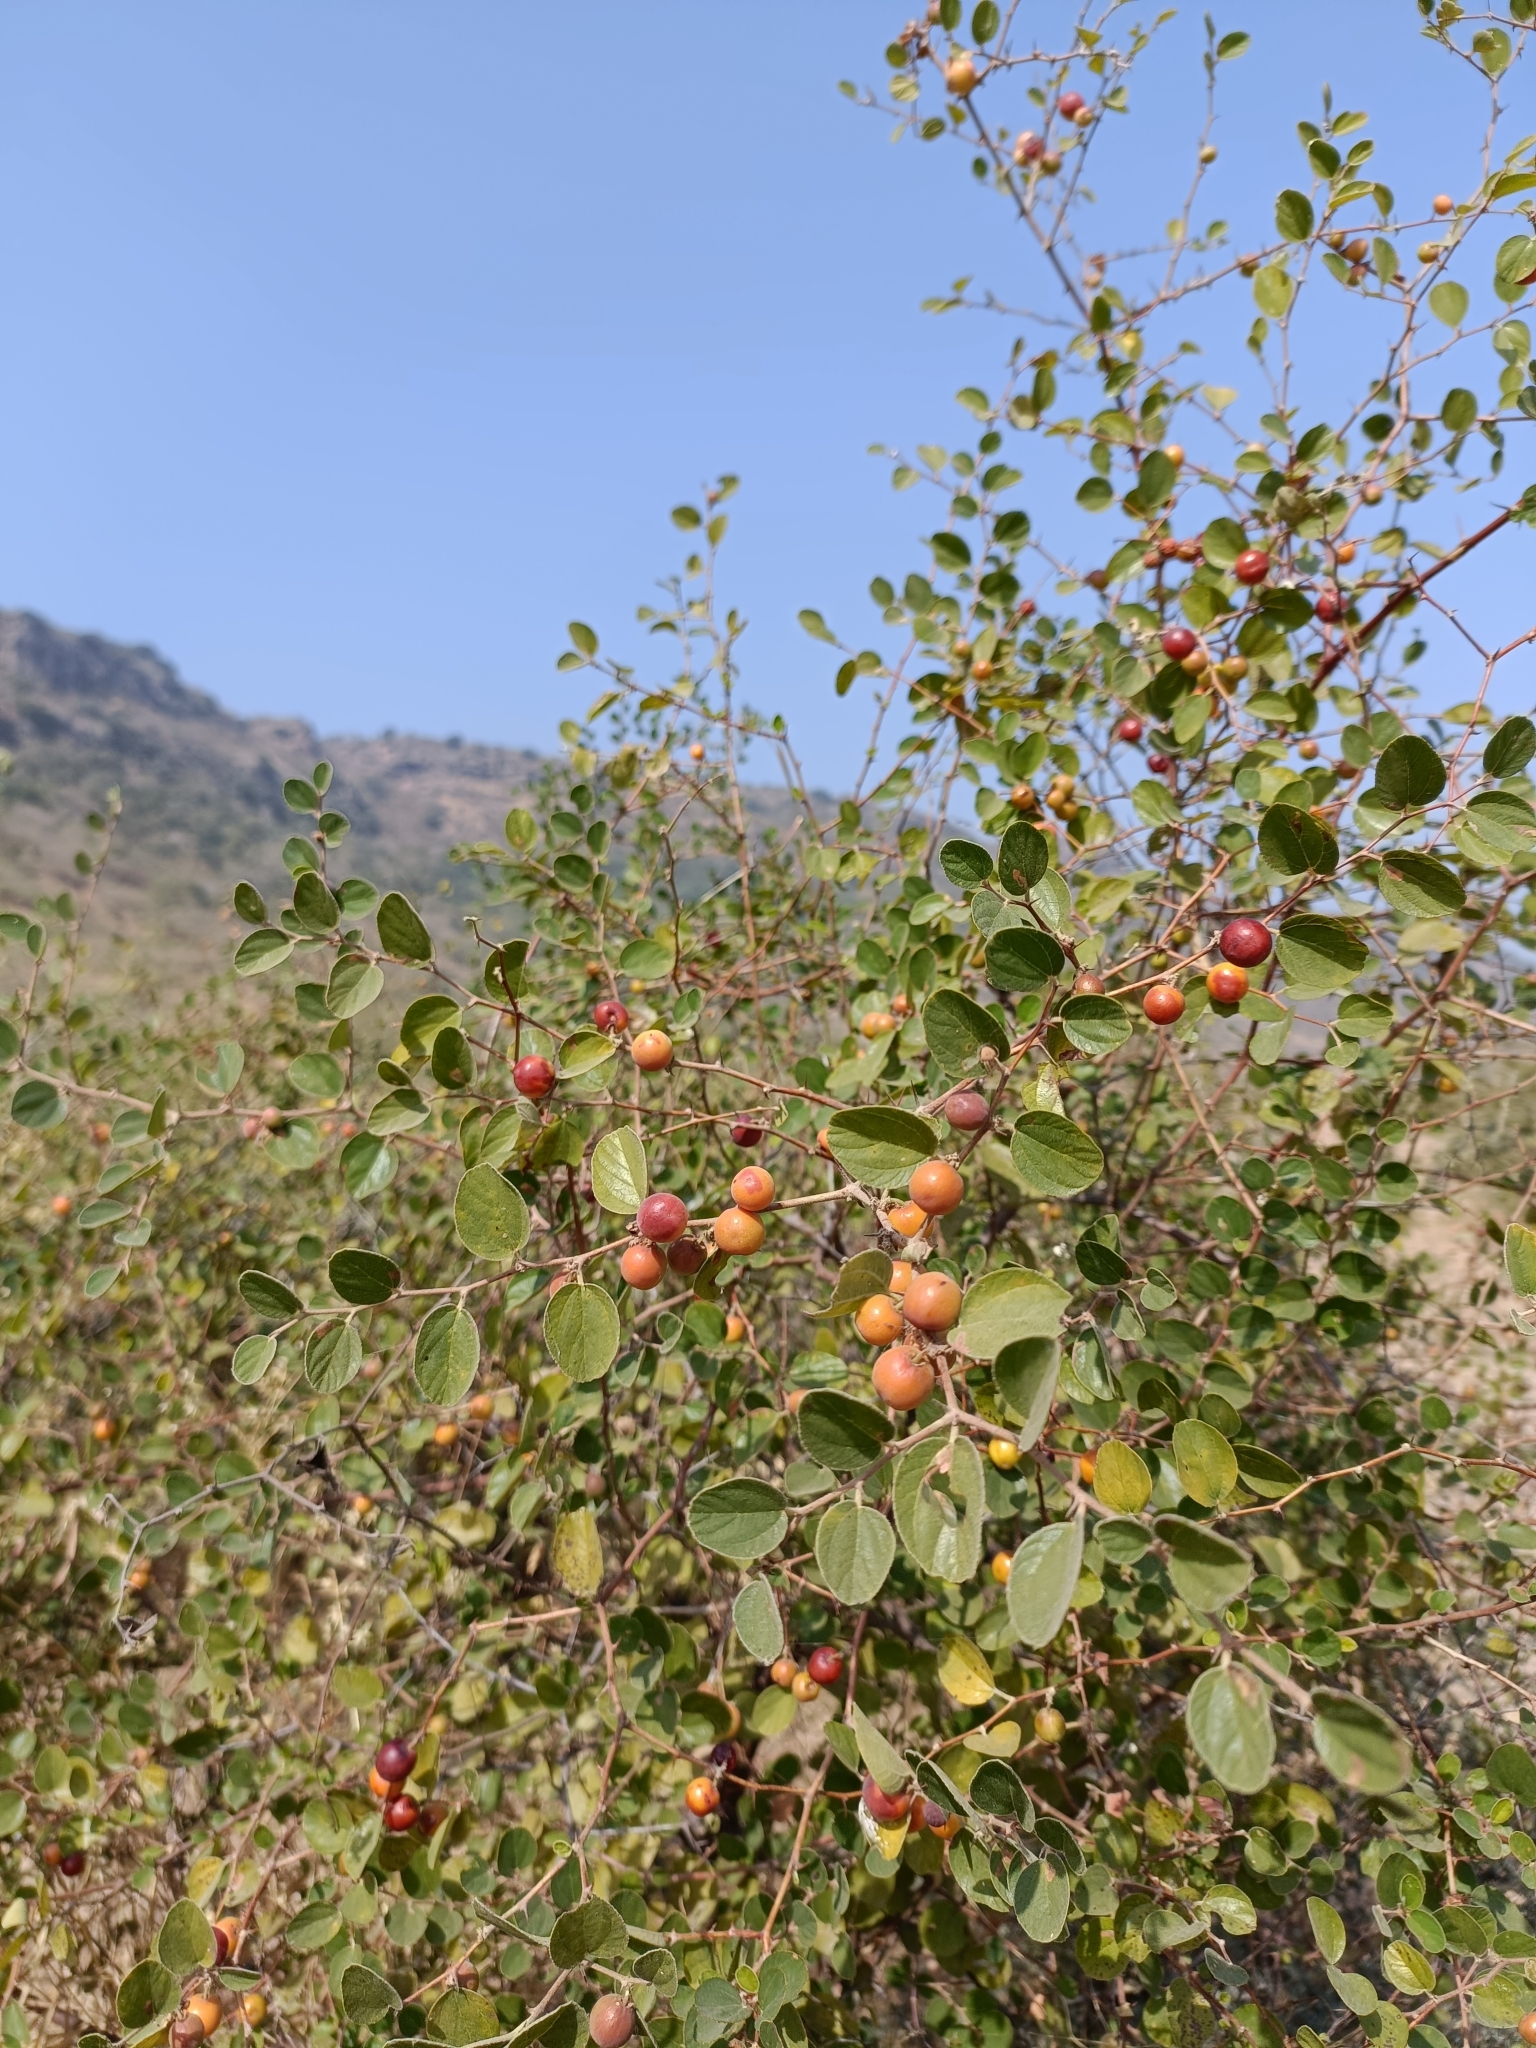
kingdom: Plantae
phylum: Tracheophyta
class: Magnoliopsida
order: Rosales
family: Rhamnaceae
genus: Ziziphus
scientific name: Ziziphus nummularia
